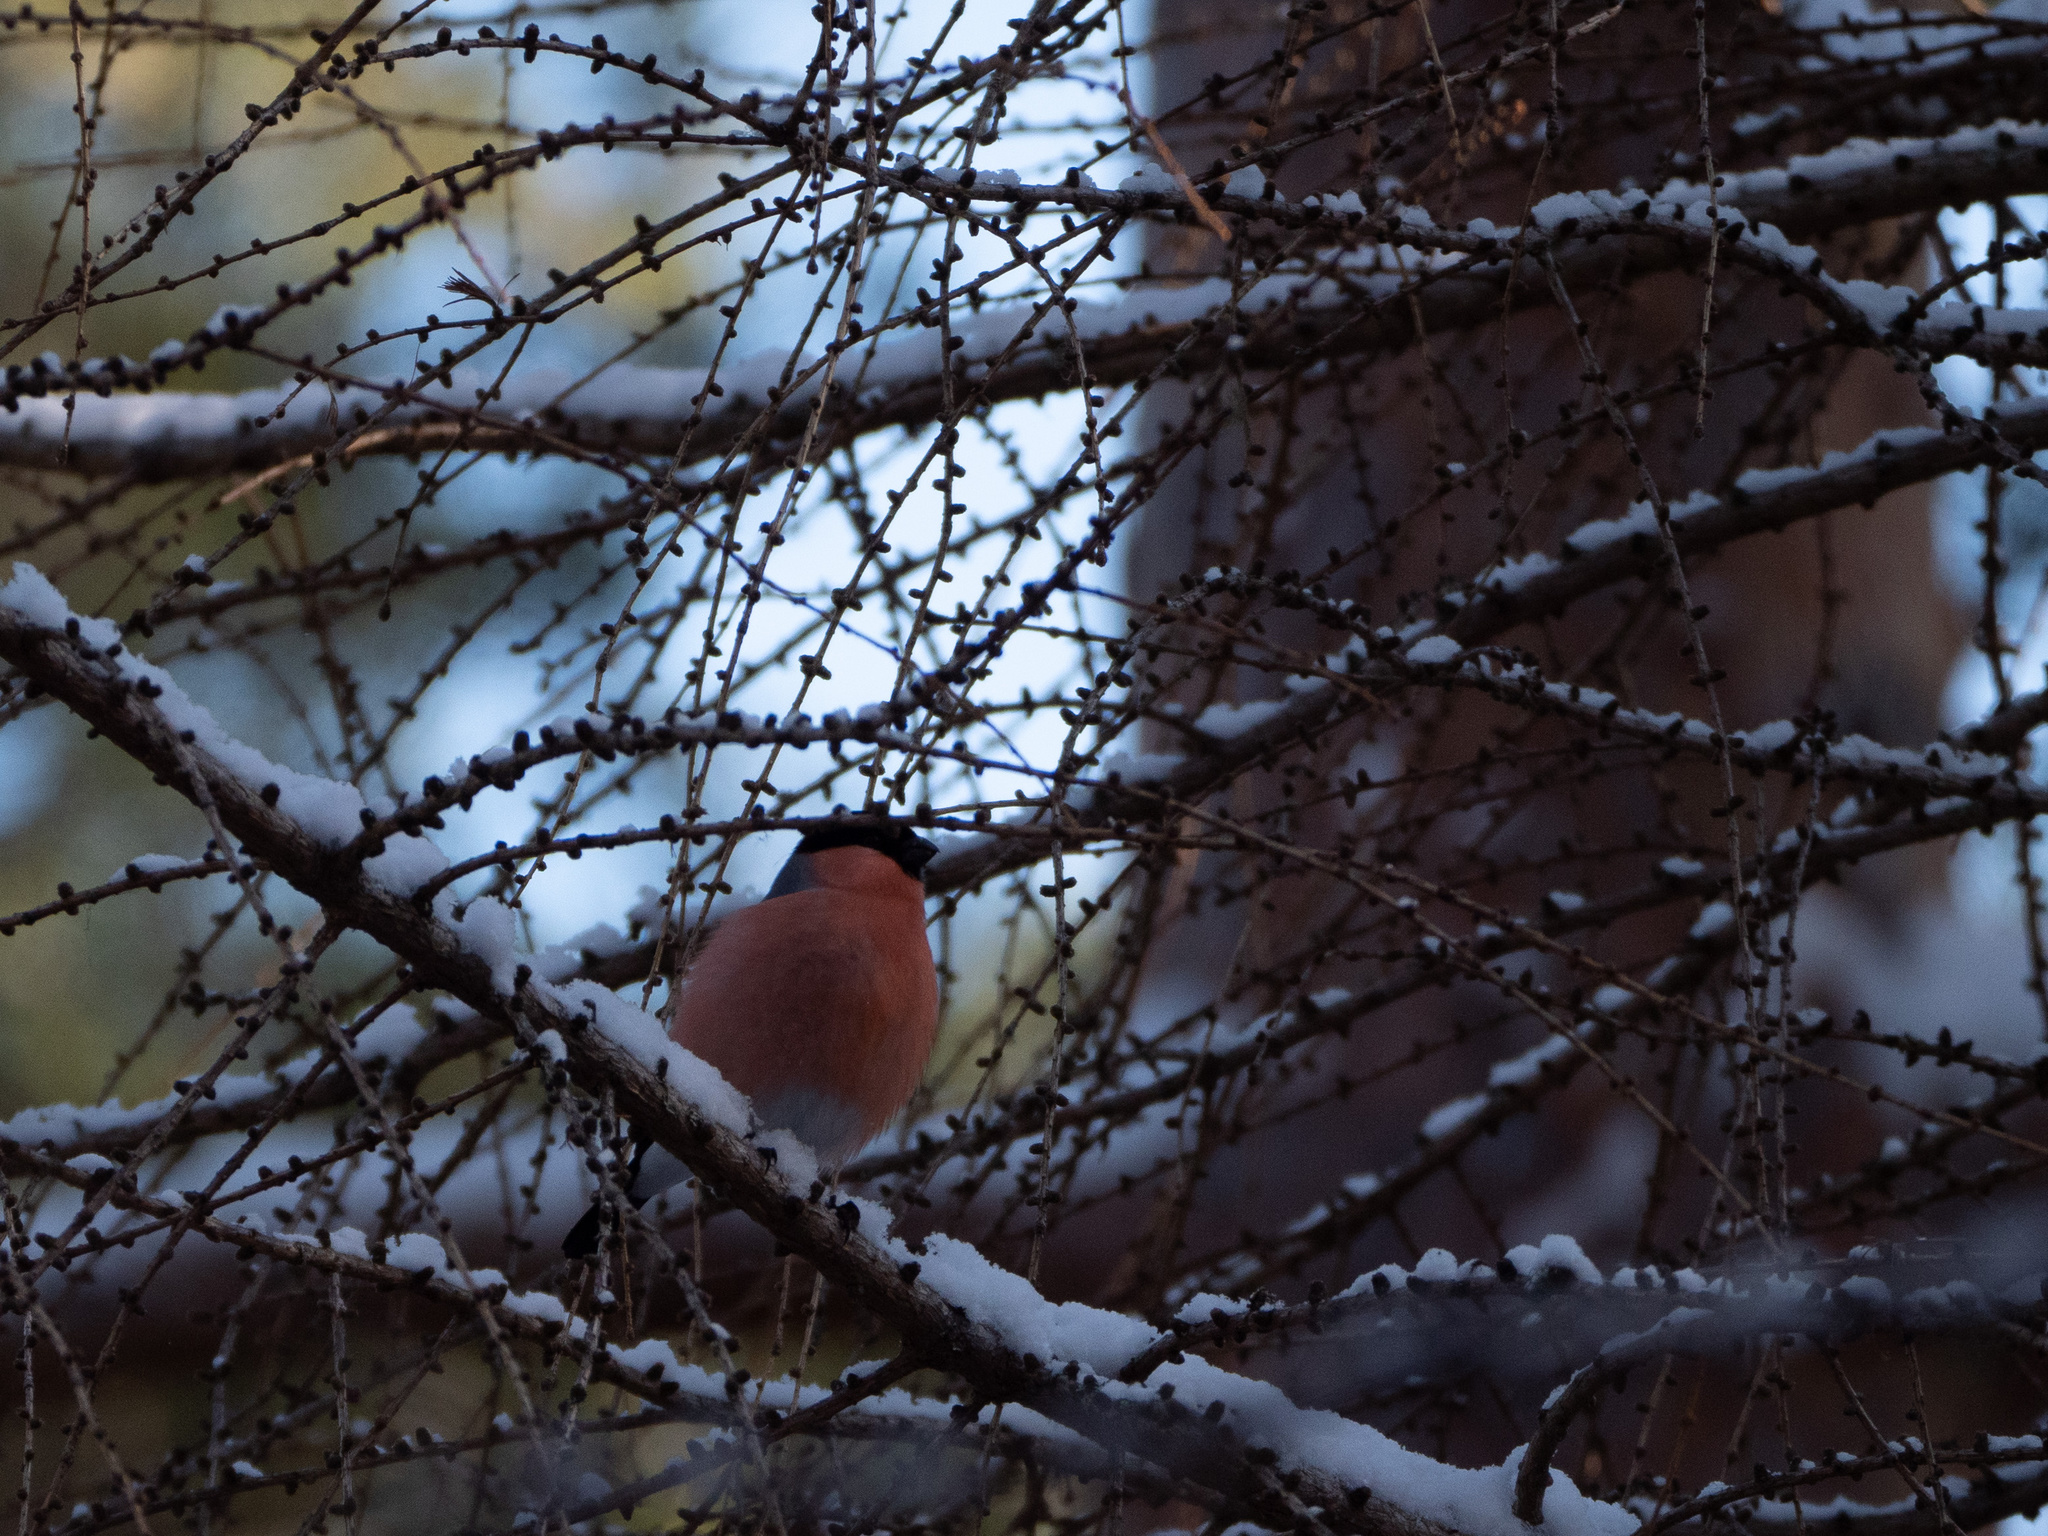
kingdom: Animalia
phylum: Chordata
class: Aves
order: Passeriformes
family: Fringillidae
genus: Pyrrhula
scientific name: Pyrrhula pyrrhula
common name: Eurasian bullfinch
